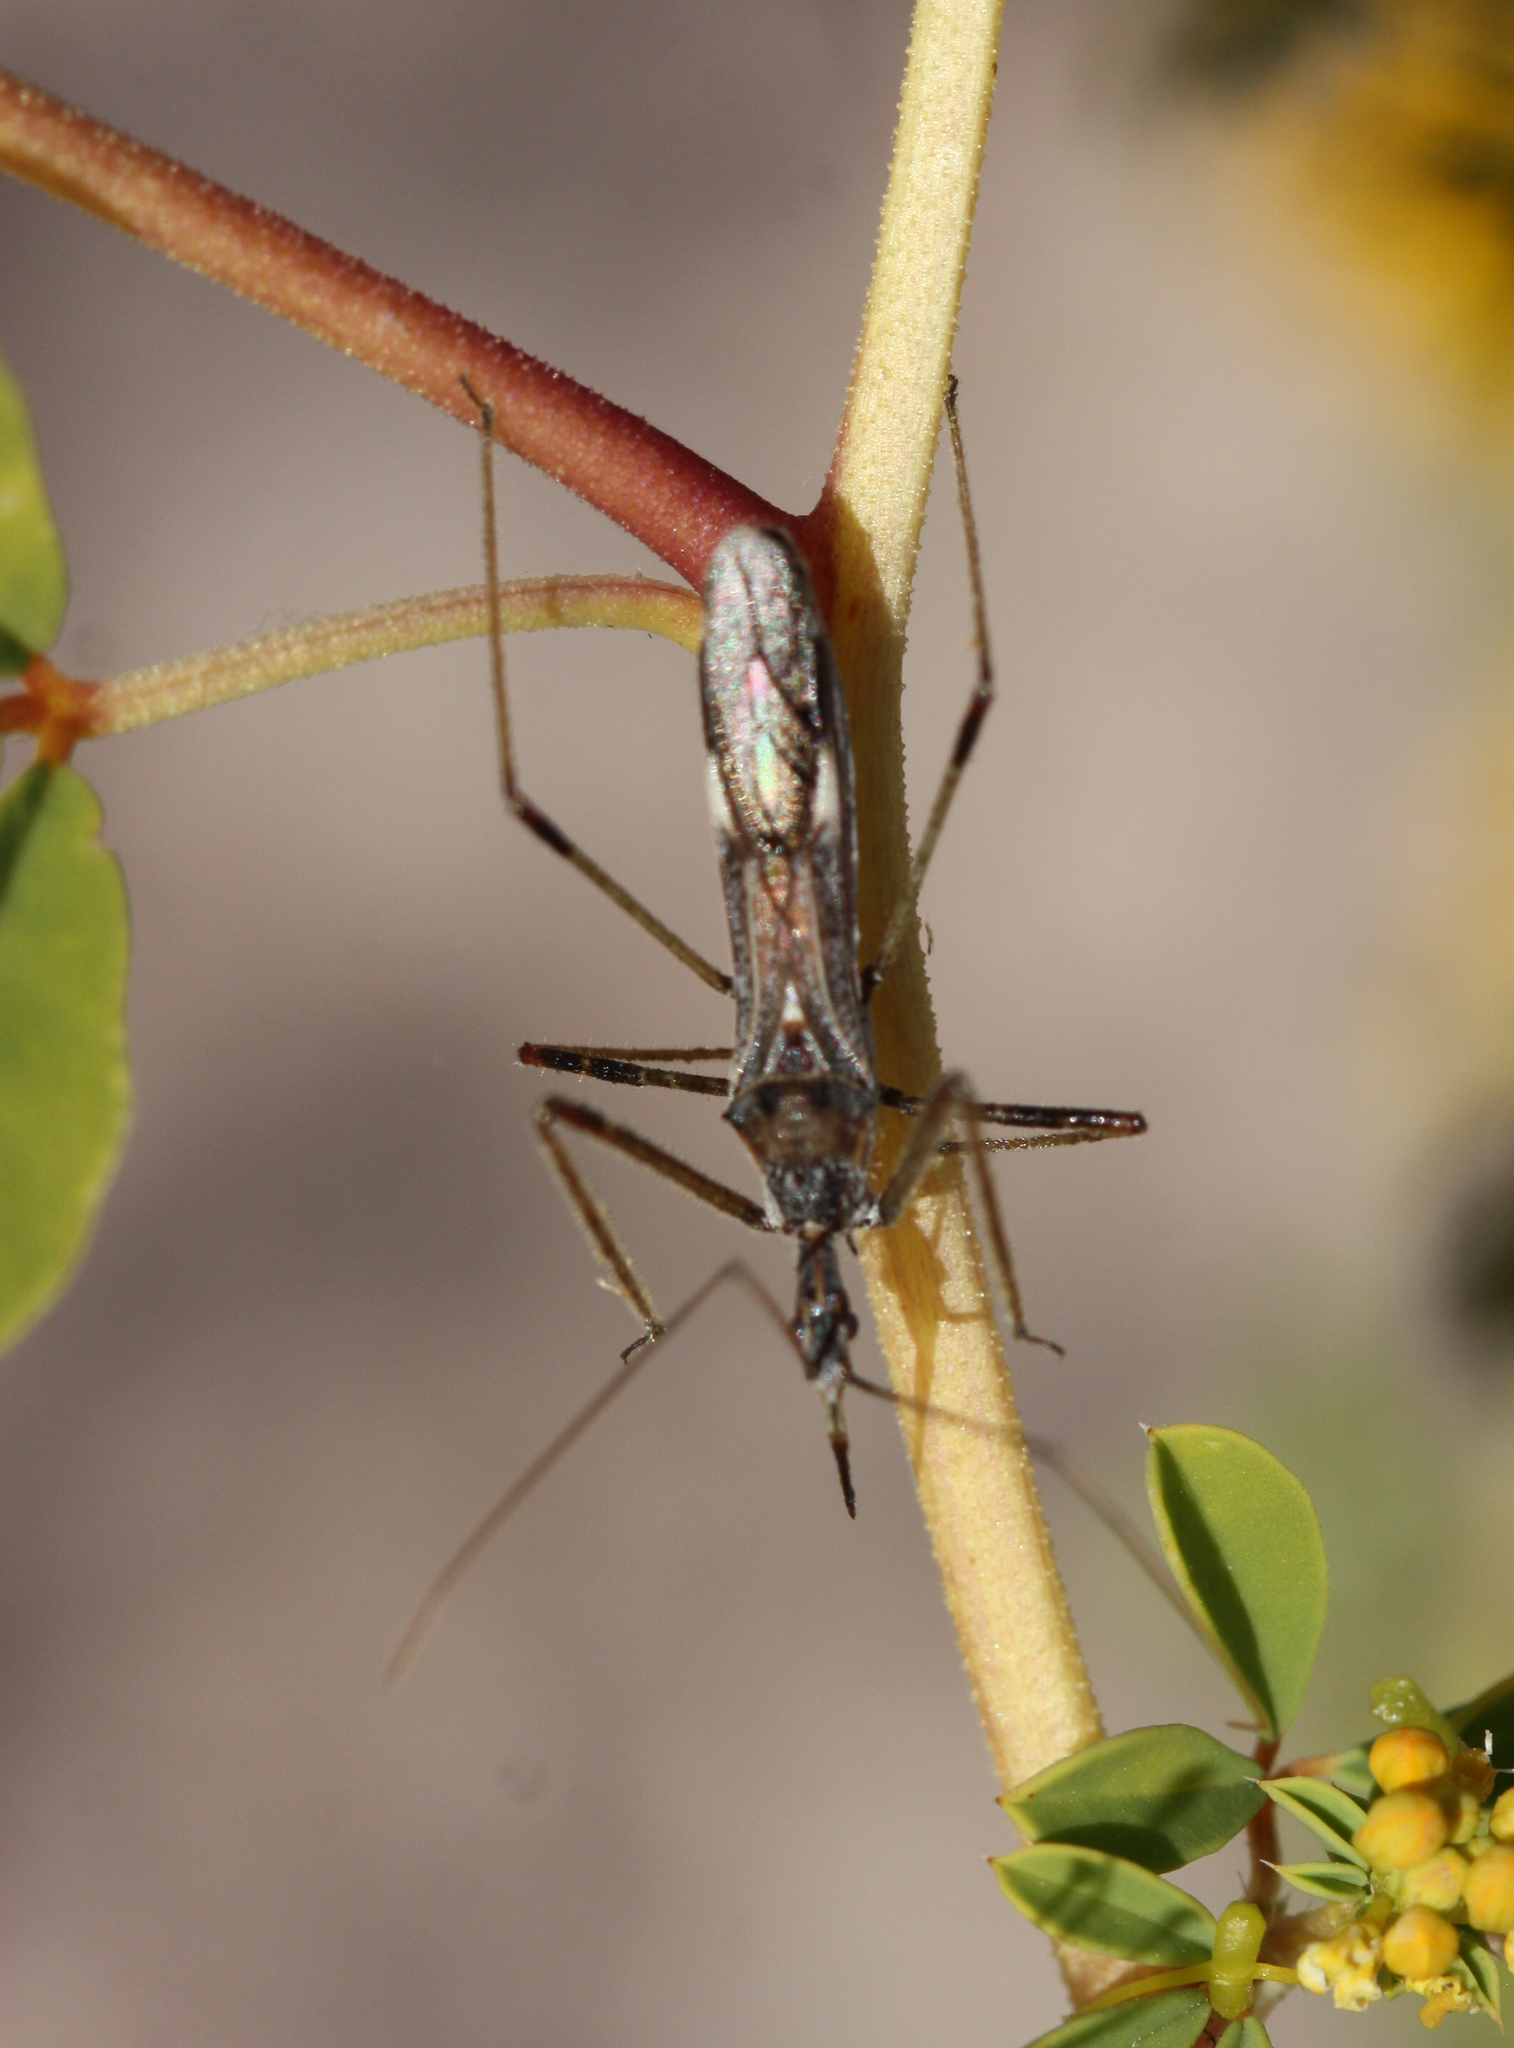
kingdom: Animalia
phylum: Arthropoda
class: Insecta
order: Hemiptera
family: Reduviidae
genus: Zelus
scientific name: Zelus tetracanthus
